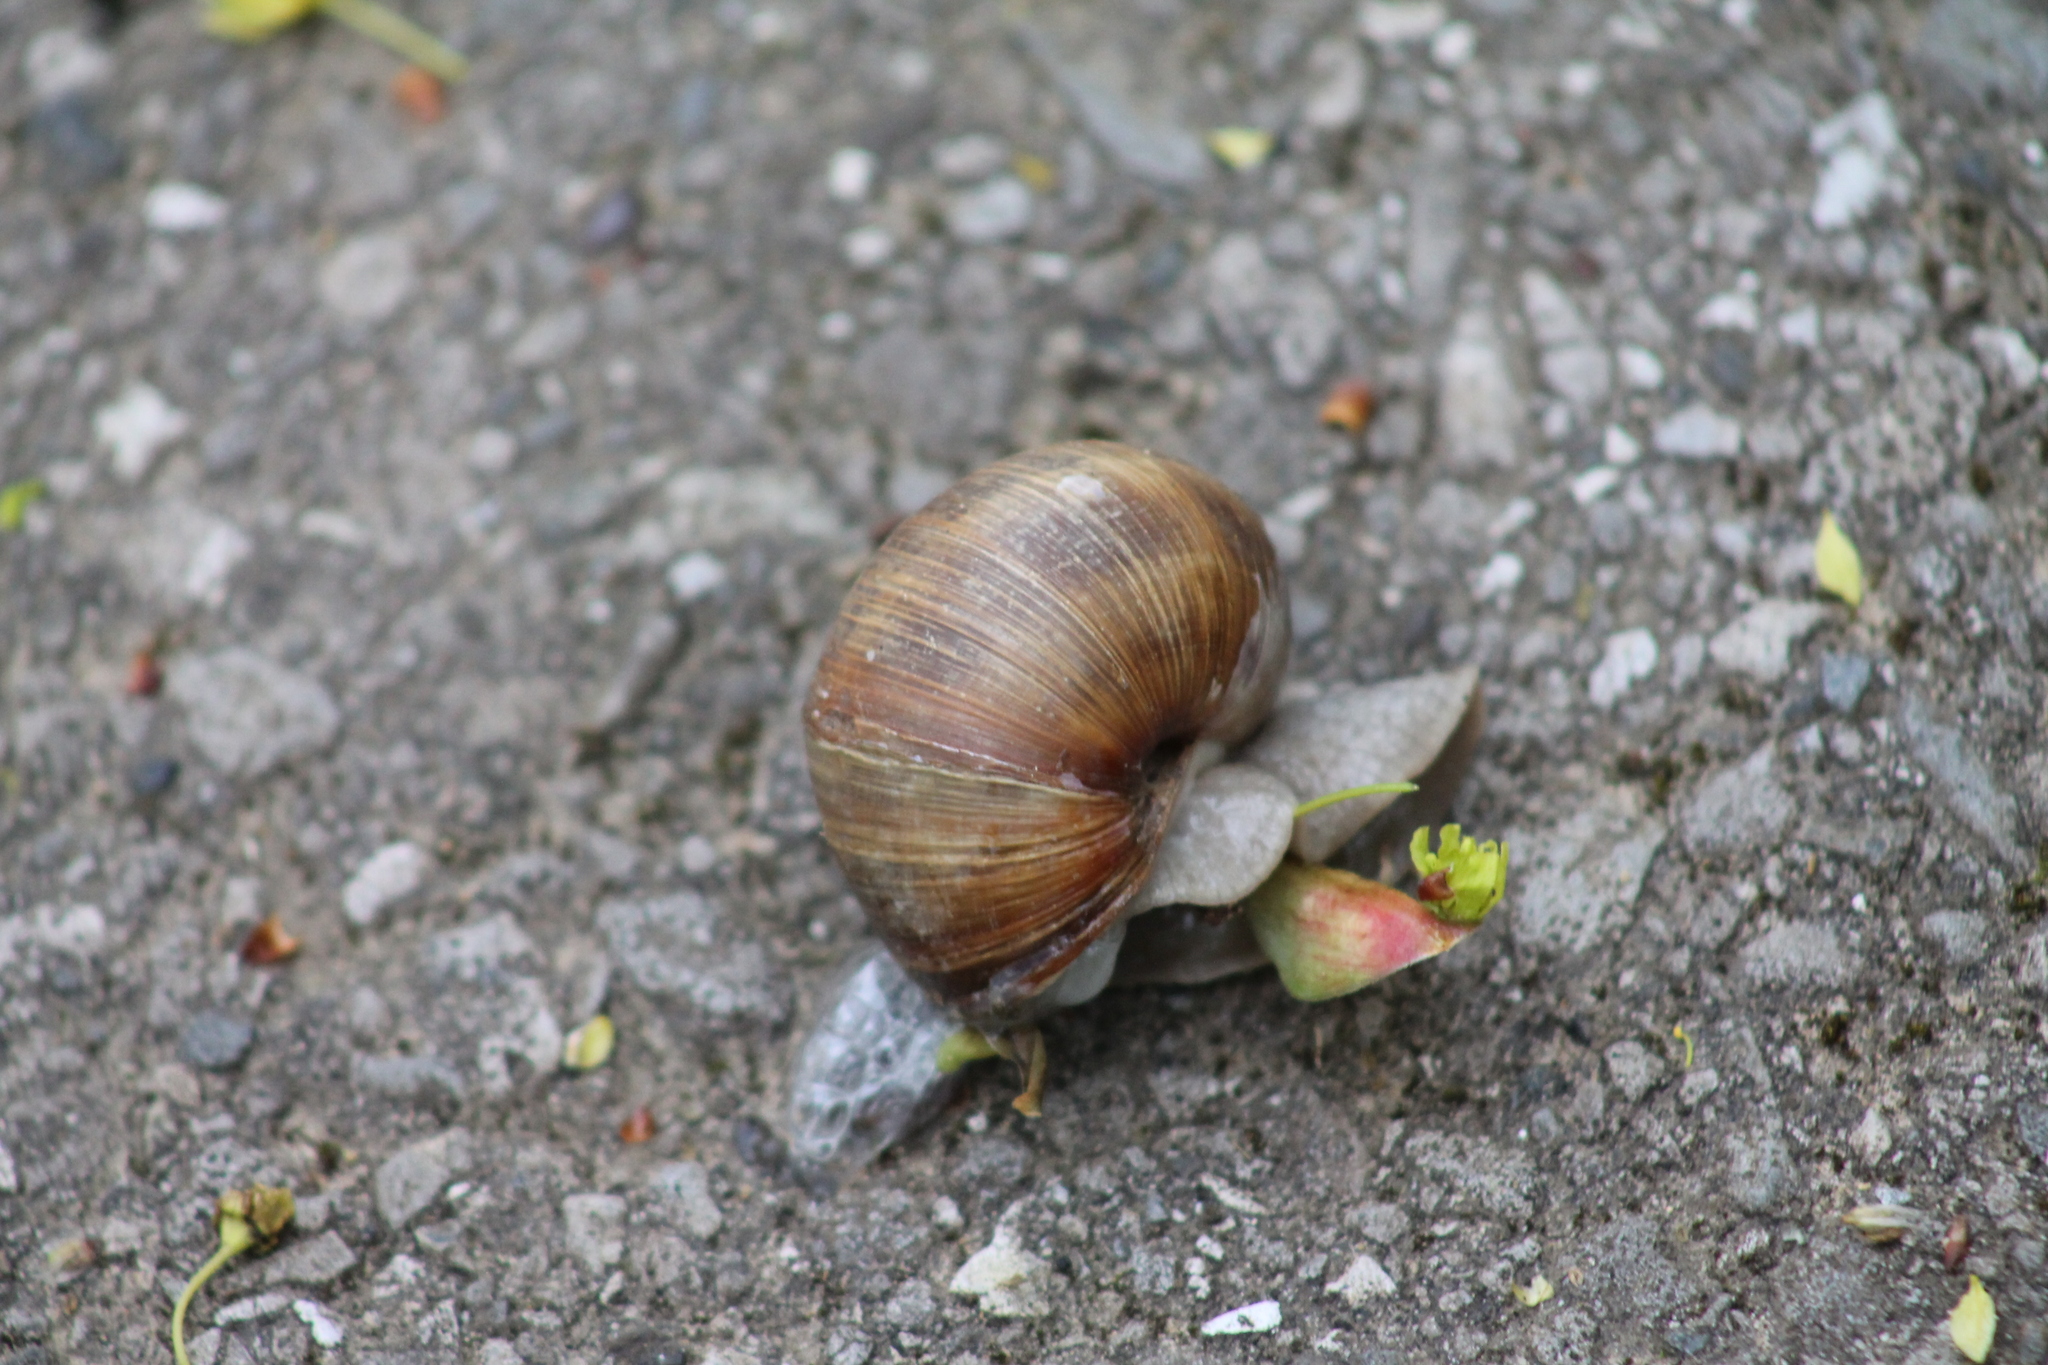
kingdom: Animalia
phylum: Mollusca
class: Gastropoda
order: Stylommatophora
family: Helicidae
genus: Helix
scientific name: Helix pomatia
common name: Roman snail
